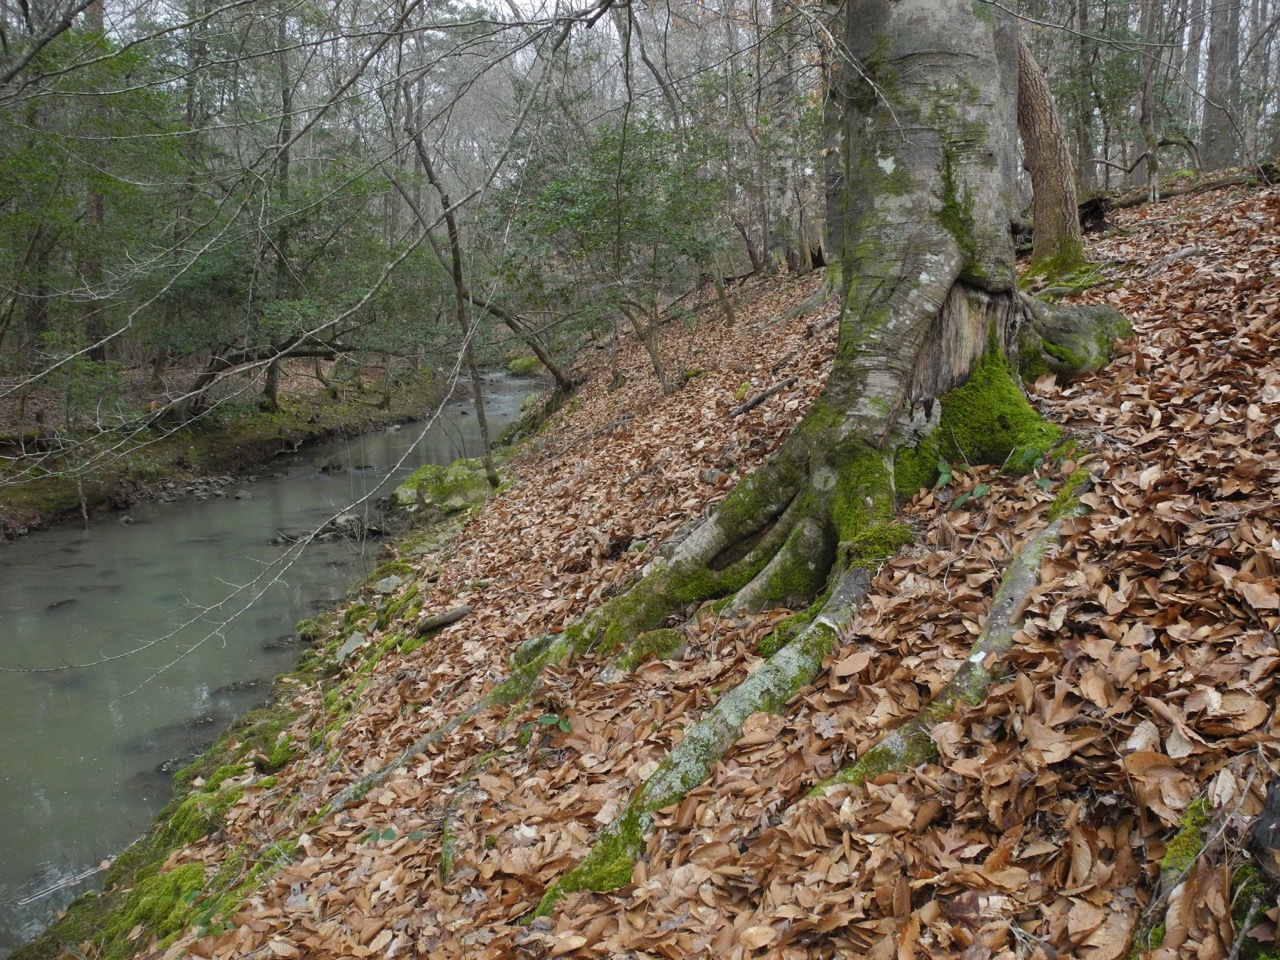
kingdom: Plantae
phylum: Tracheophyta
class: Magnoliopsida
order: Fagales
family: Fagaceae
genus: Fagus
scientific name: Fagus grandifolia
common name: American beech
